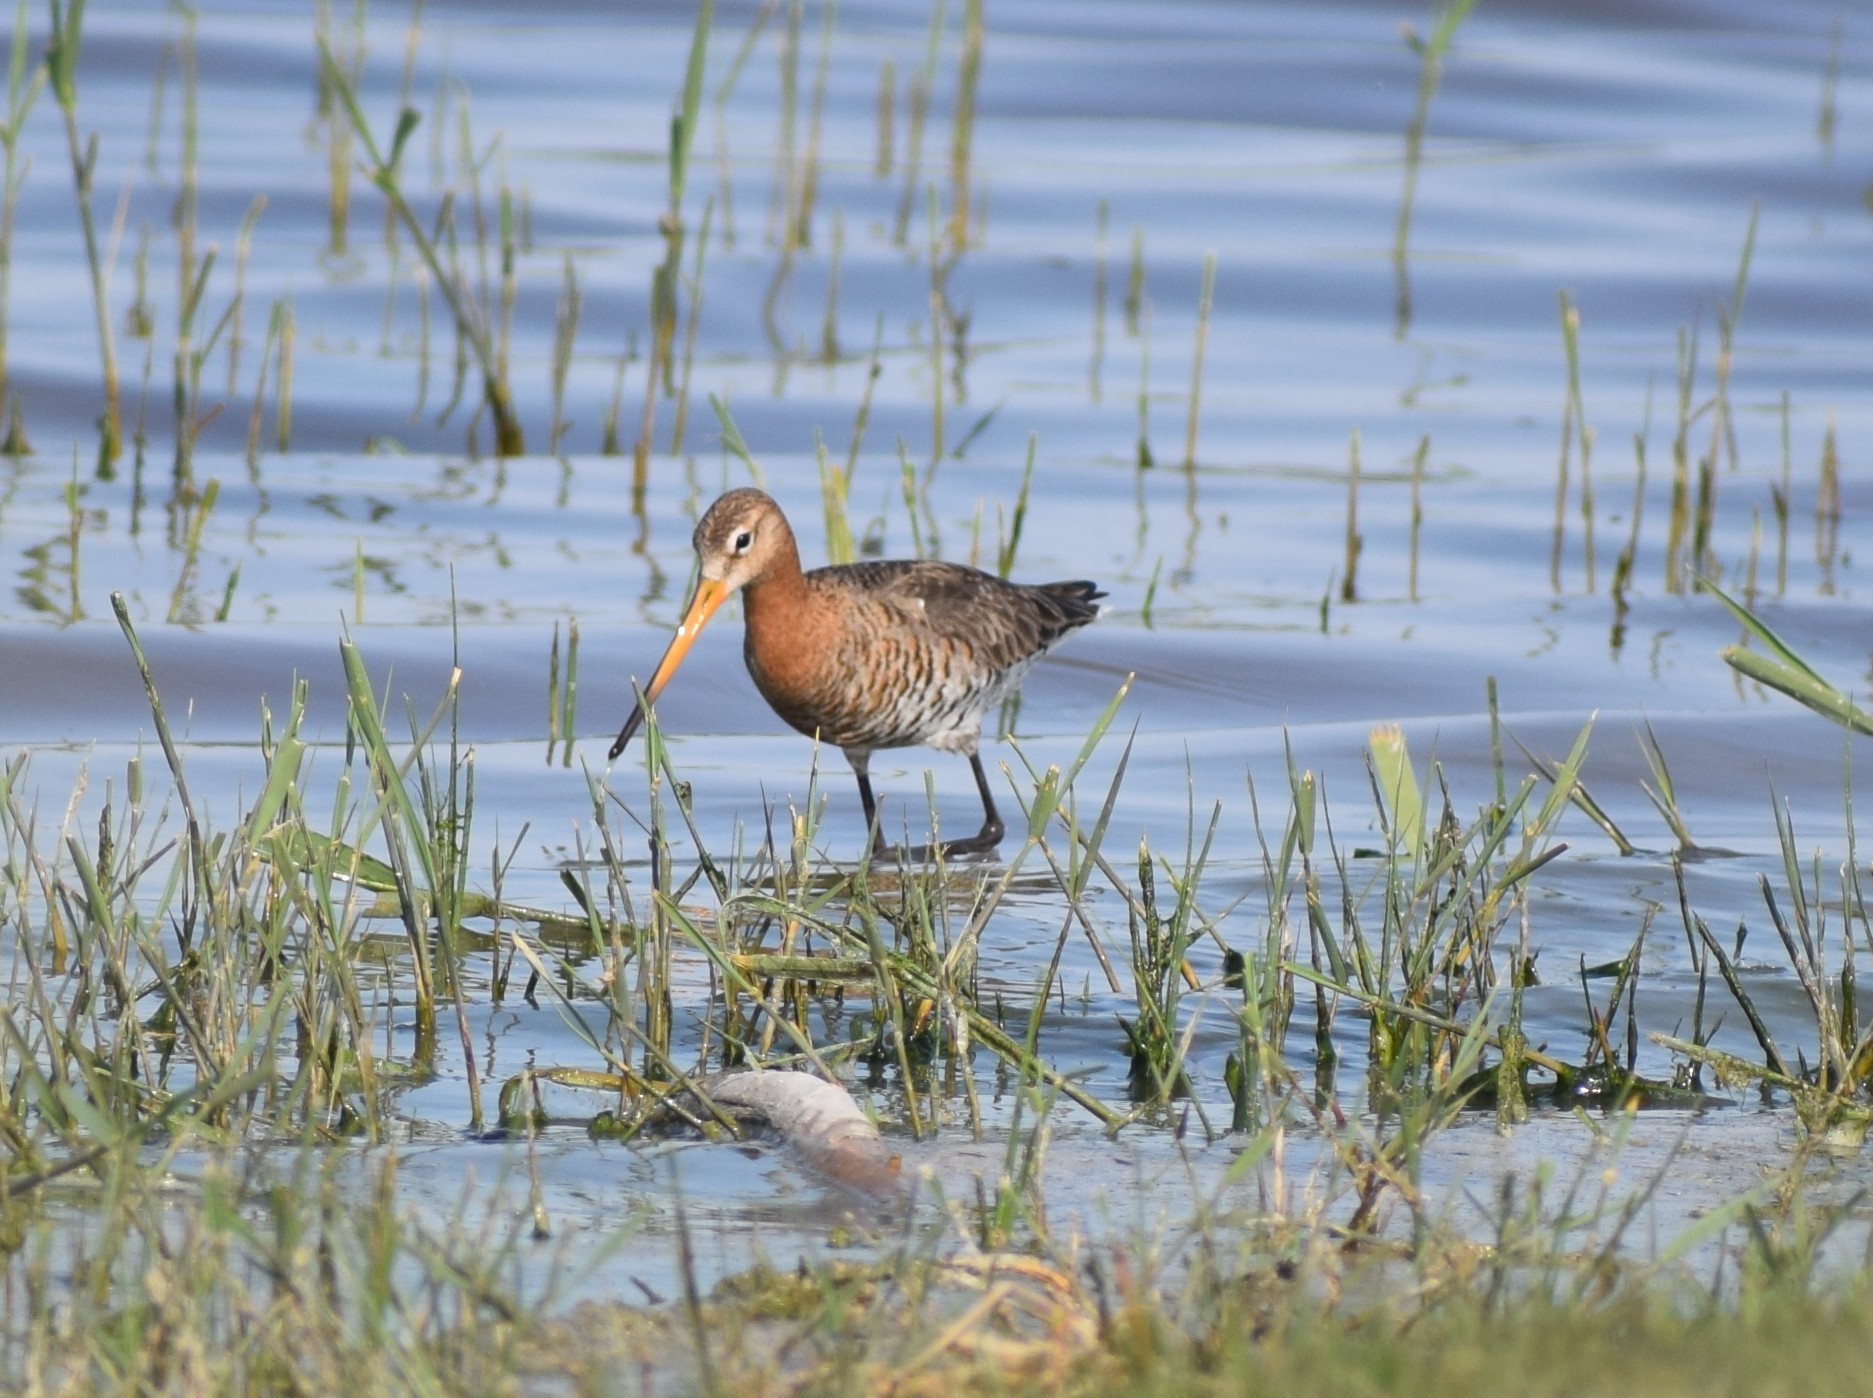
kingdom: Animalia
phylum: Chordata
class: Aves
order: Charadriiformes
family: Scolopacidae
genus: Limosa
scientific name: Limosa limosa
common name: Black-tailed godwit
